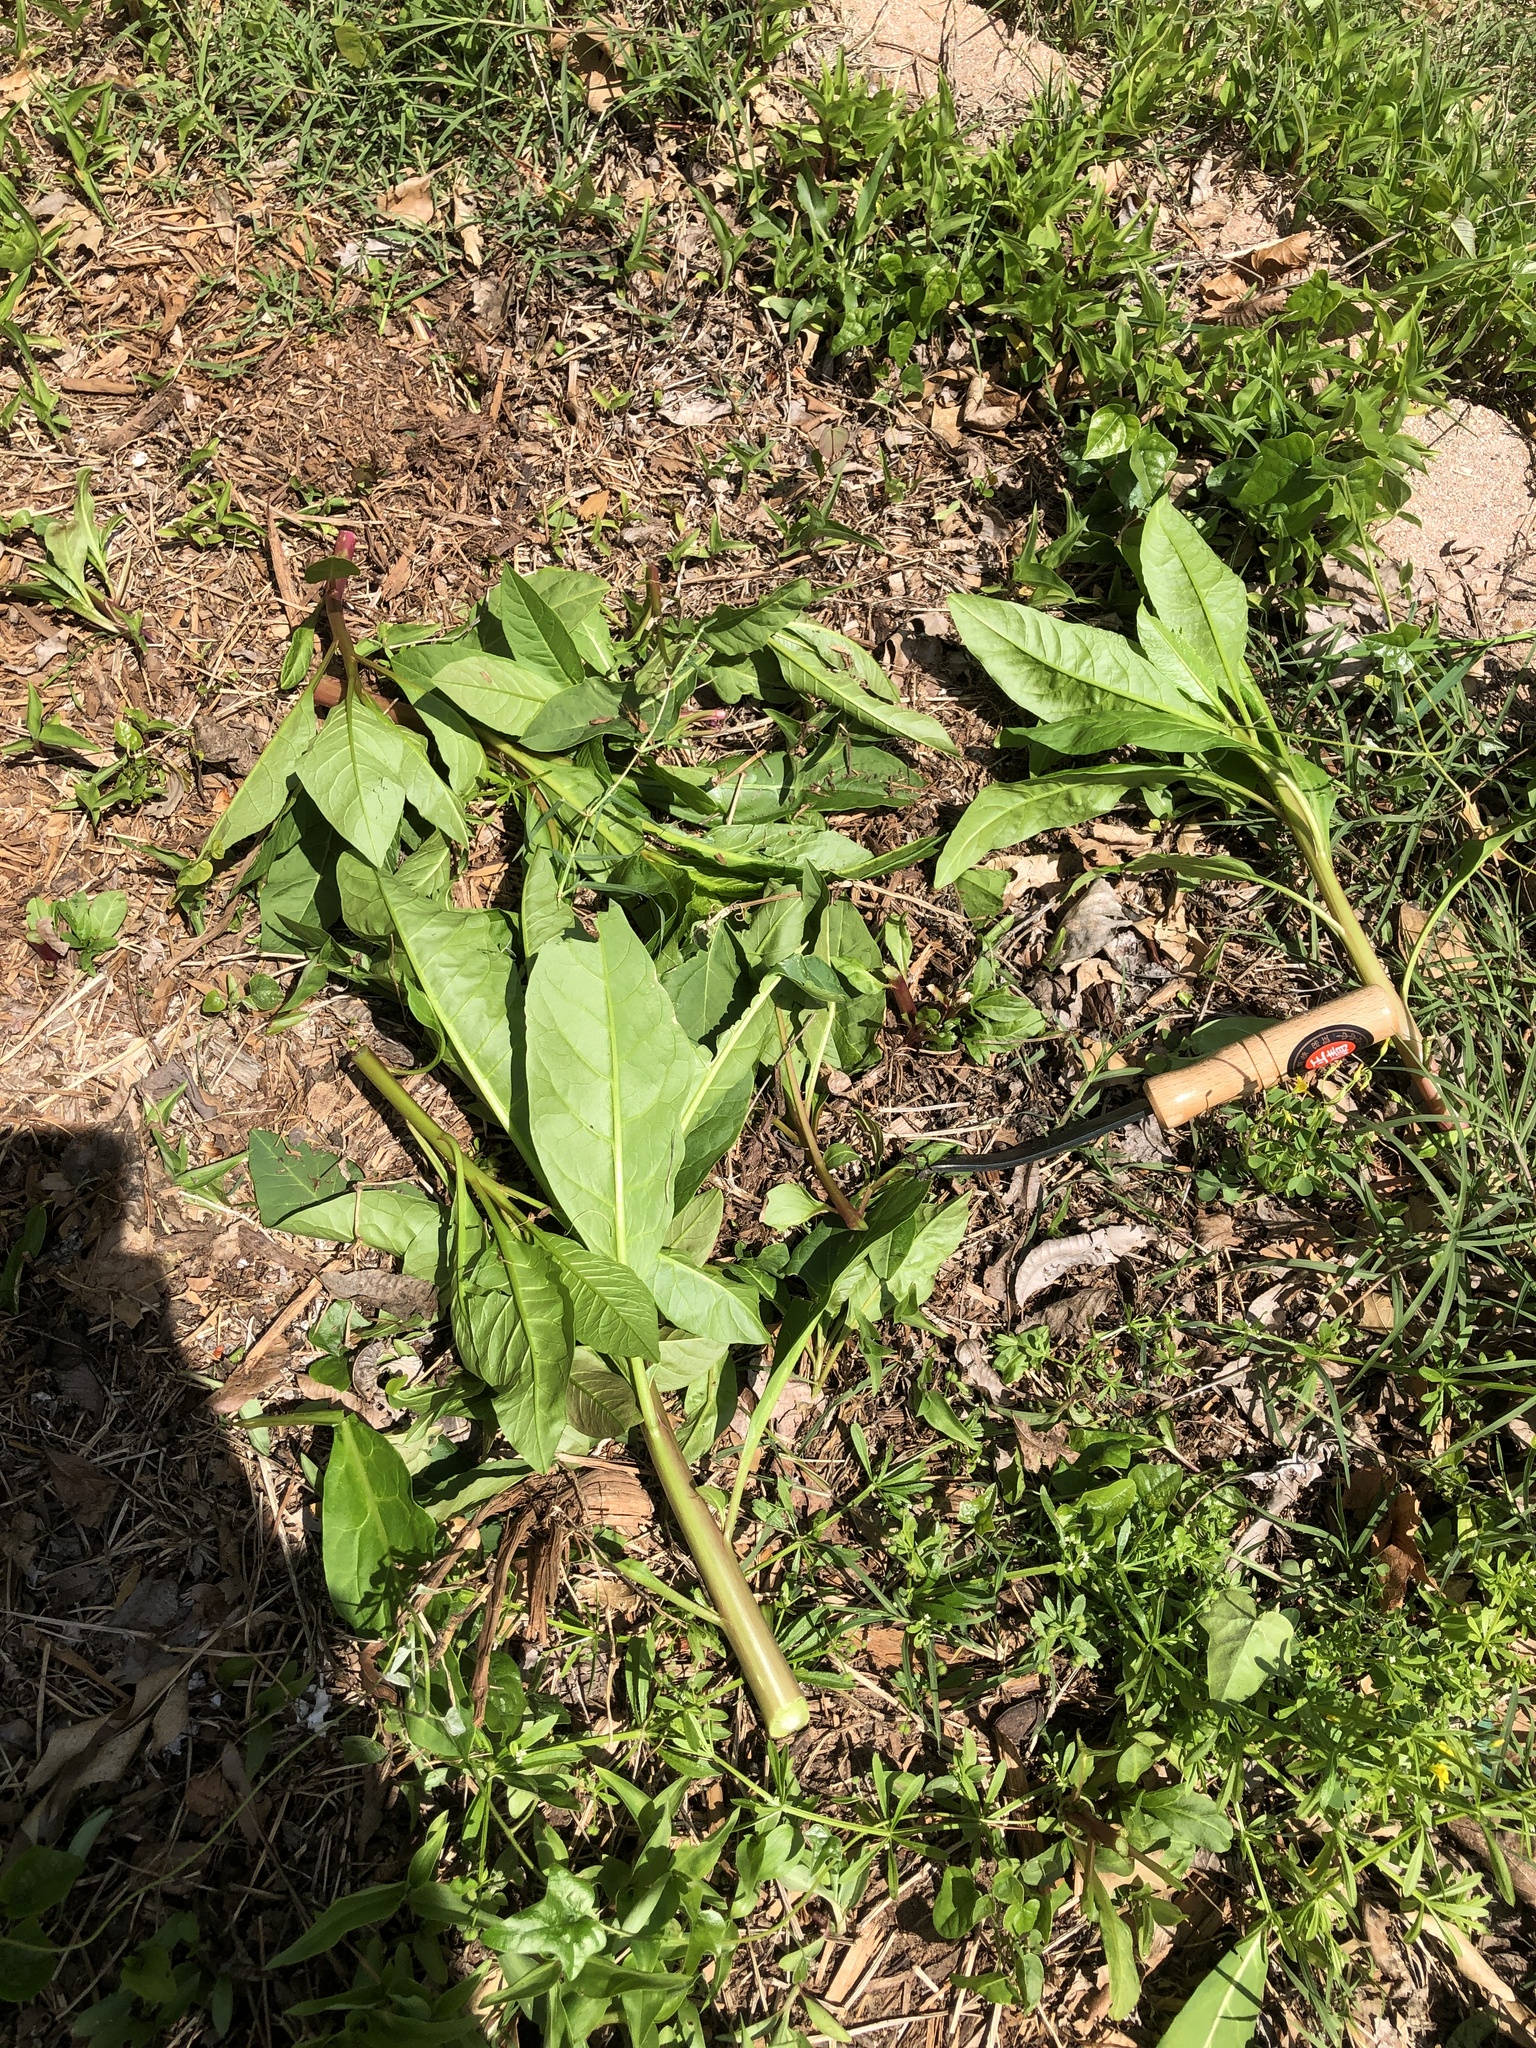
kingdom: Plantae
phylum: Tracheophyta
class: Magnoliopsida
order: Caryophyllales
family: Phytolaccaceae
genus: Phytolacca
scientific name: Phytolacca americana
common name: American pokeweed
